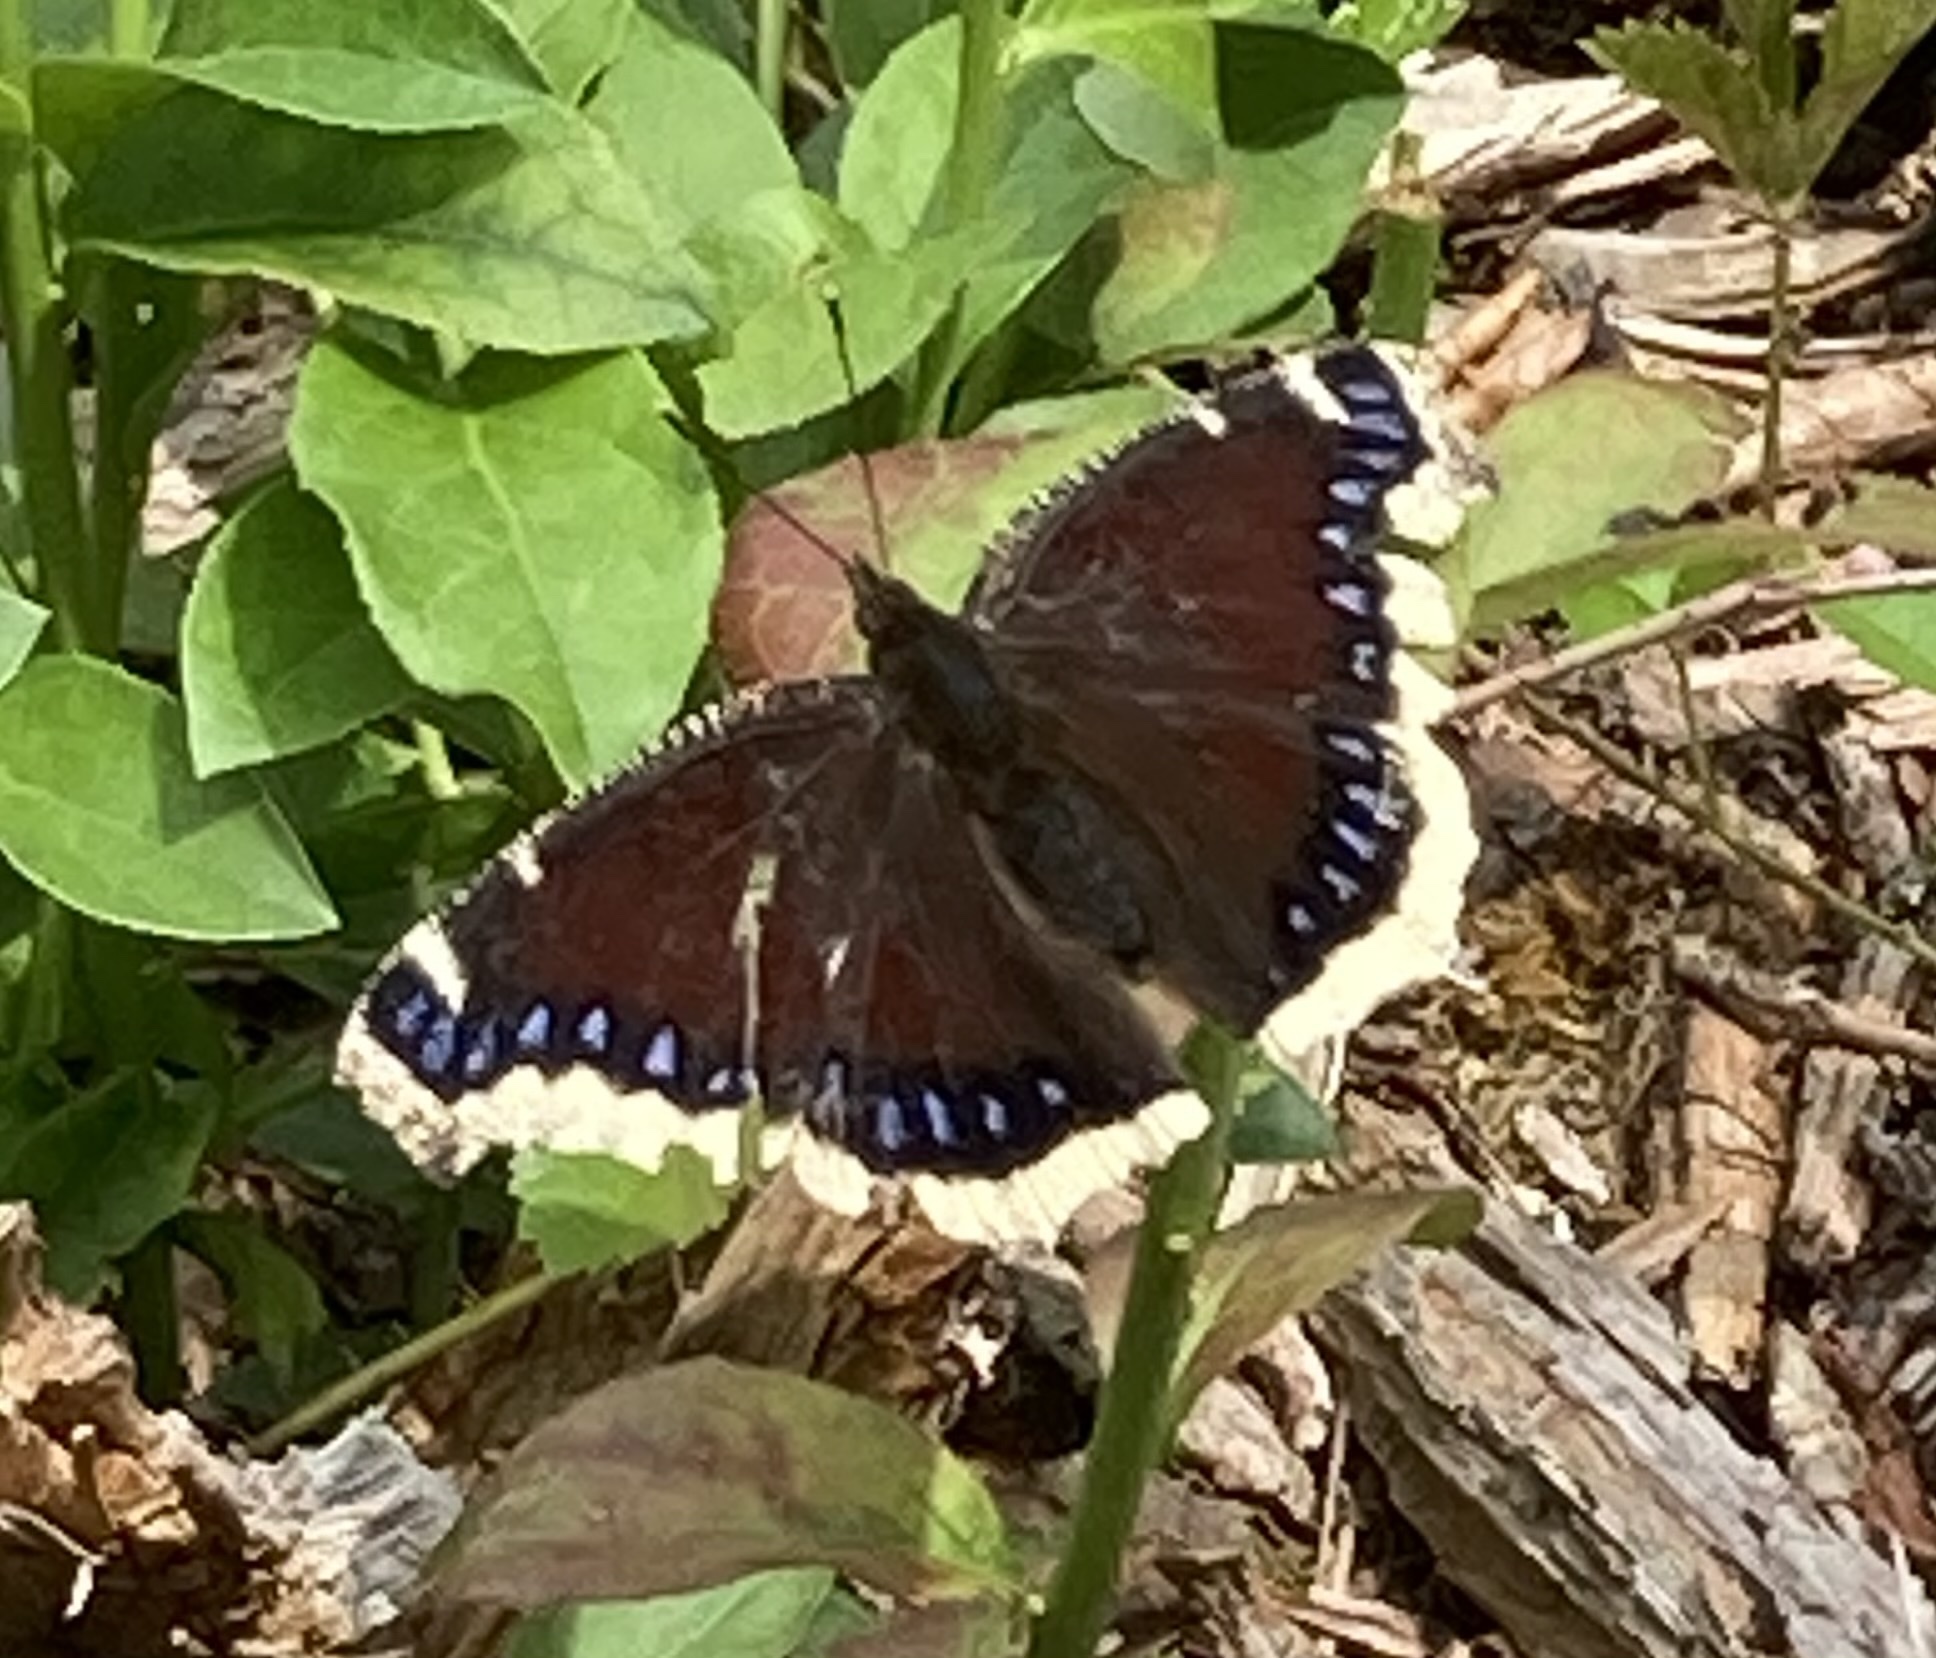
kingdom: Animalia
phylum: Arthropoda
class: Insecta
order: Lepidoptera
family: Nymphalidae
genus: Nymphalis
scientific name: Nymphalis antiopa
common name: Camberwell beauty
